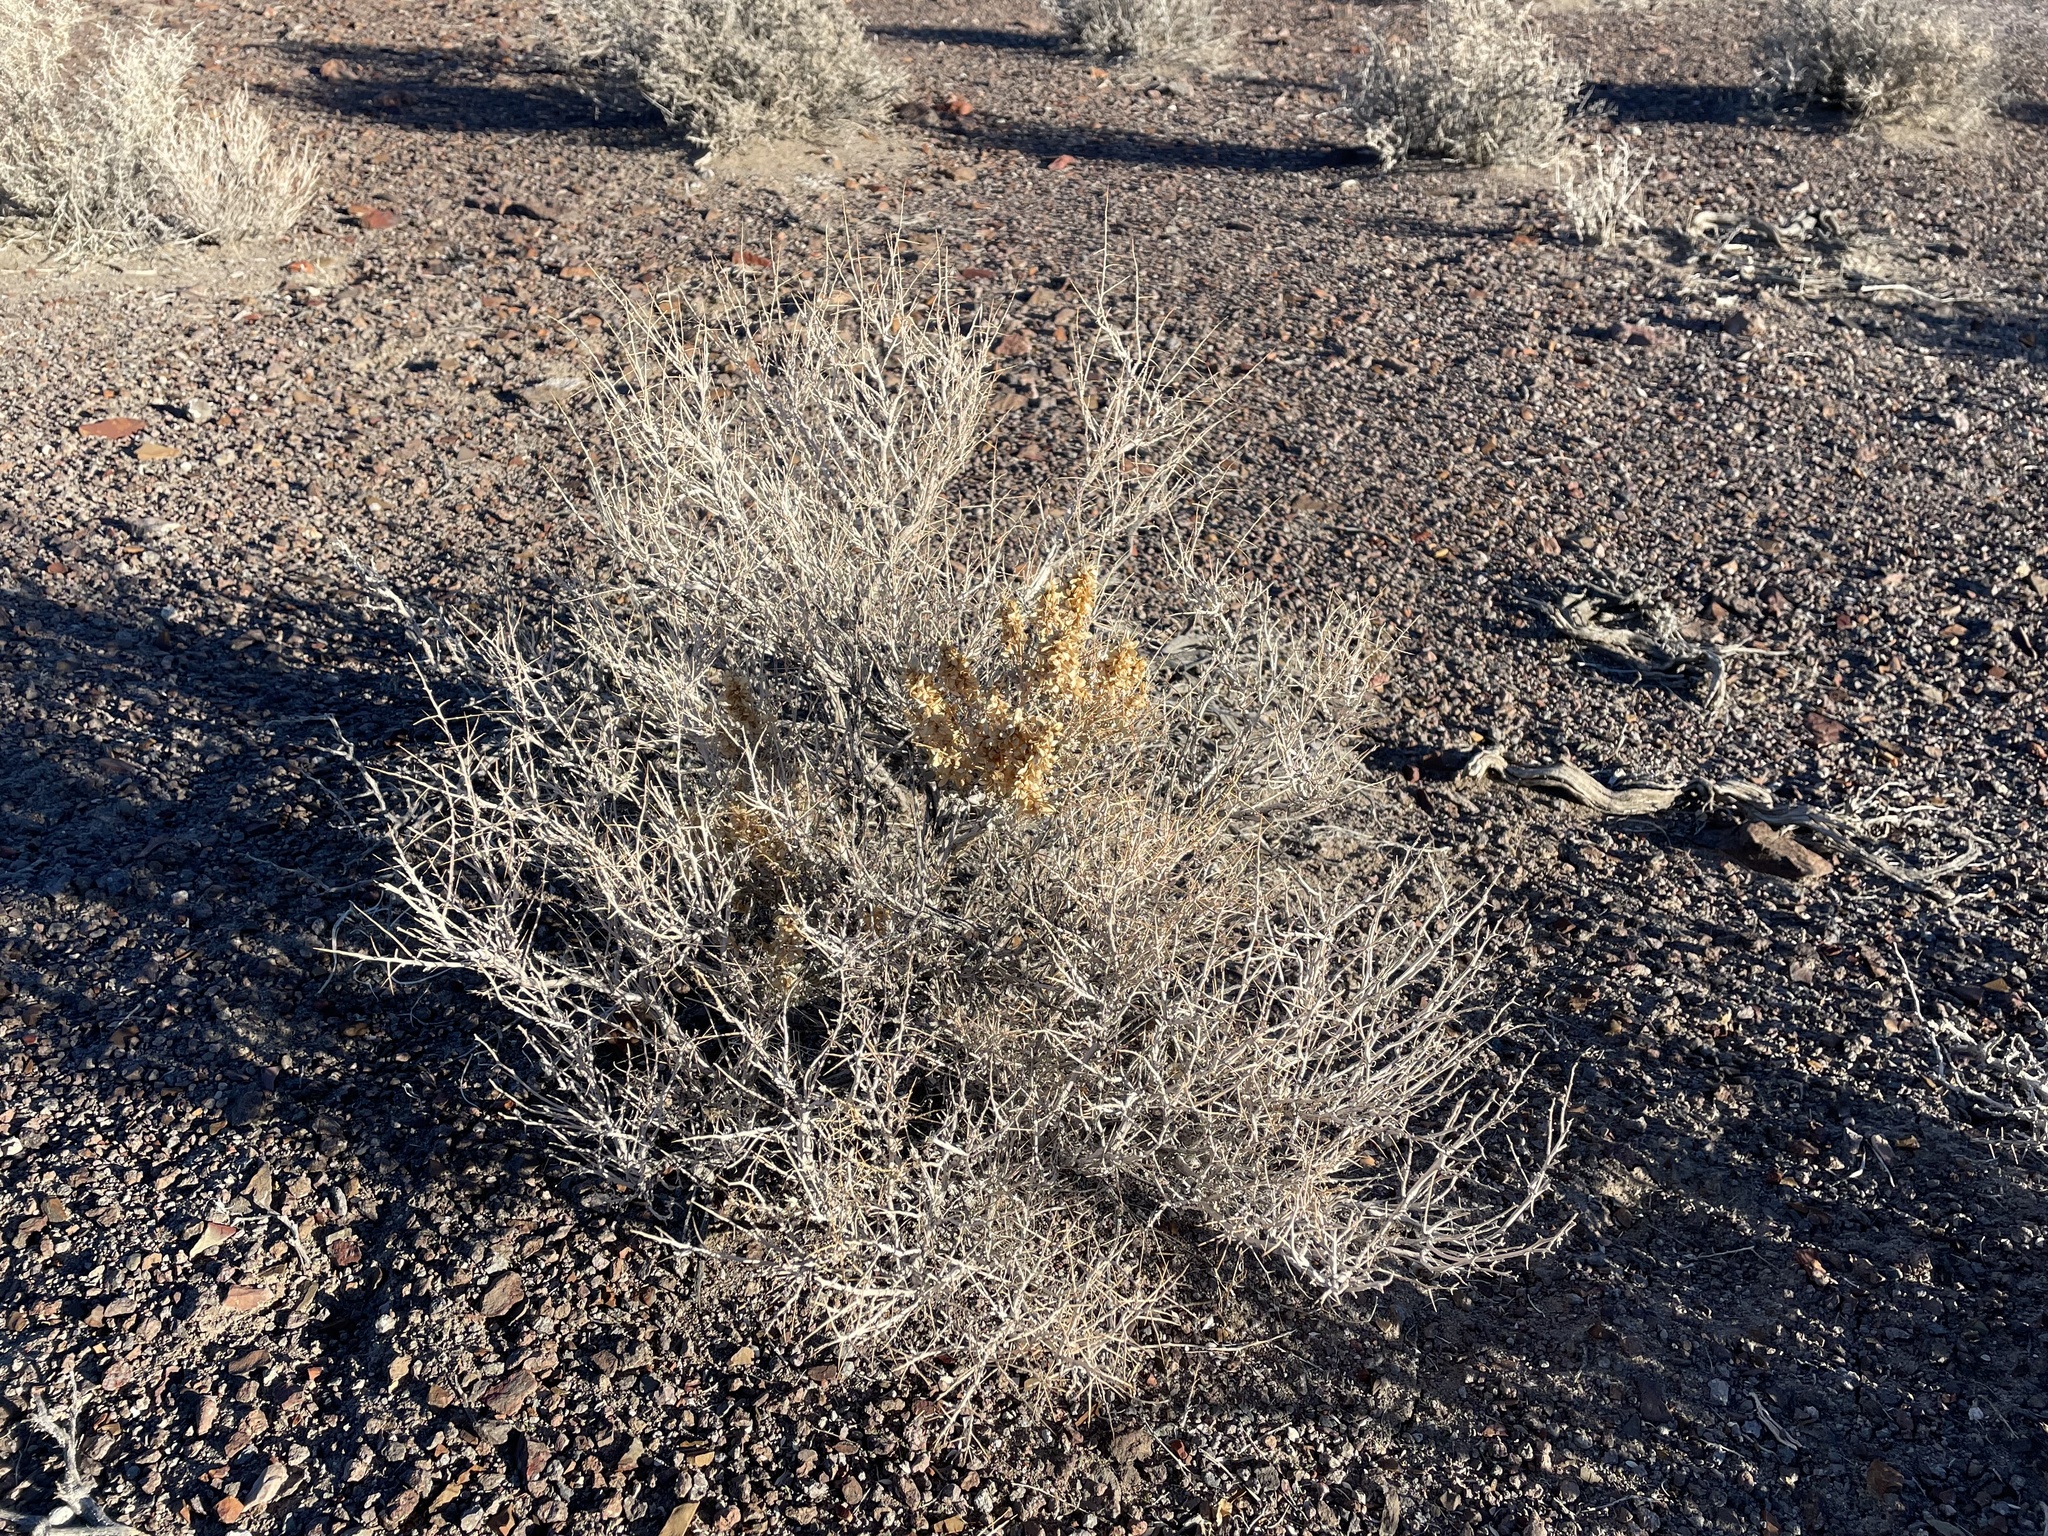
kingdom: Plantae
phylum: Tracheophyta
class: Magnoliopsida
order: Caryophyllales
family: Amaranthaceae
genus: Atriplex
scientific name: Atriplex canescens
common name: Four-wing saltbush
